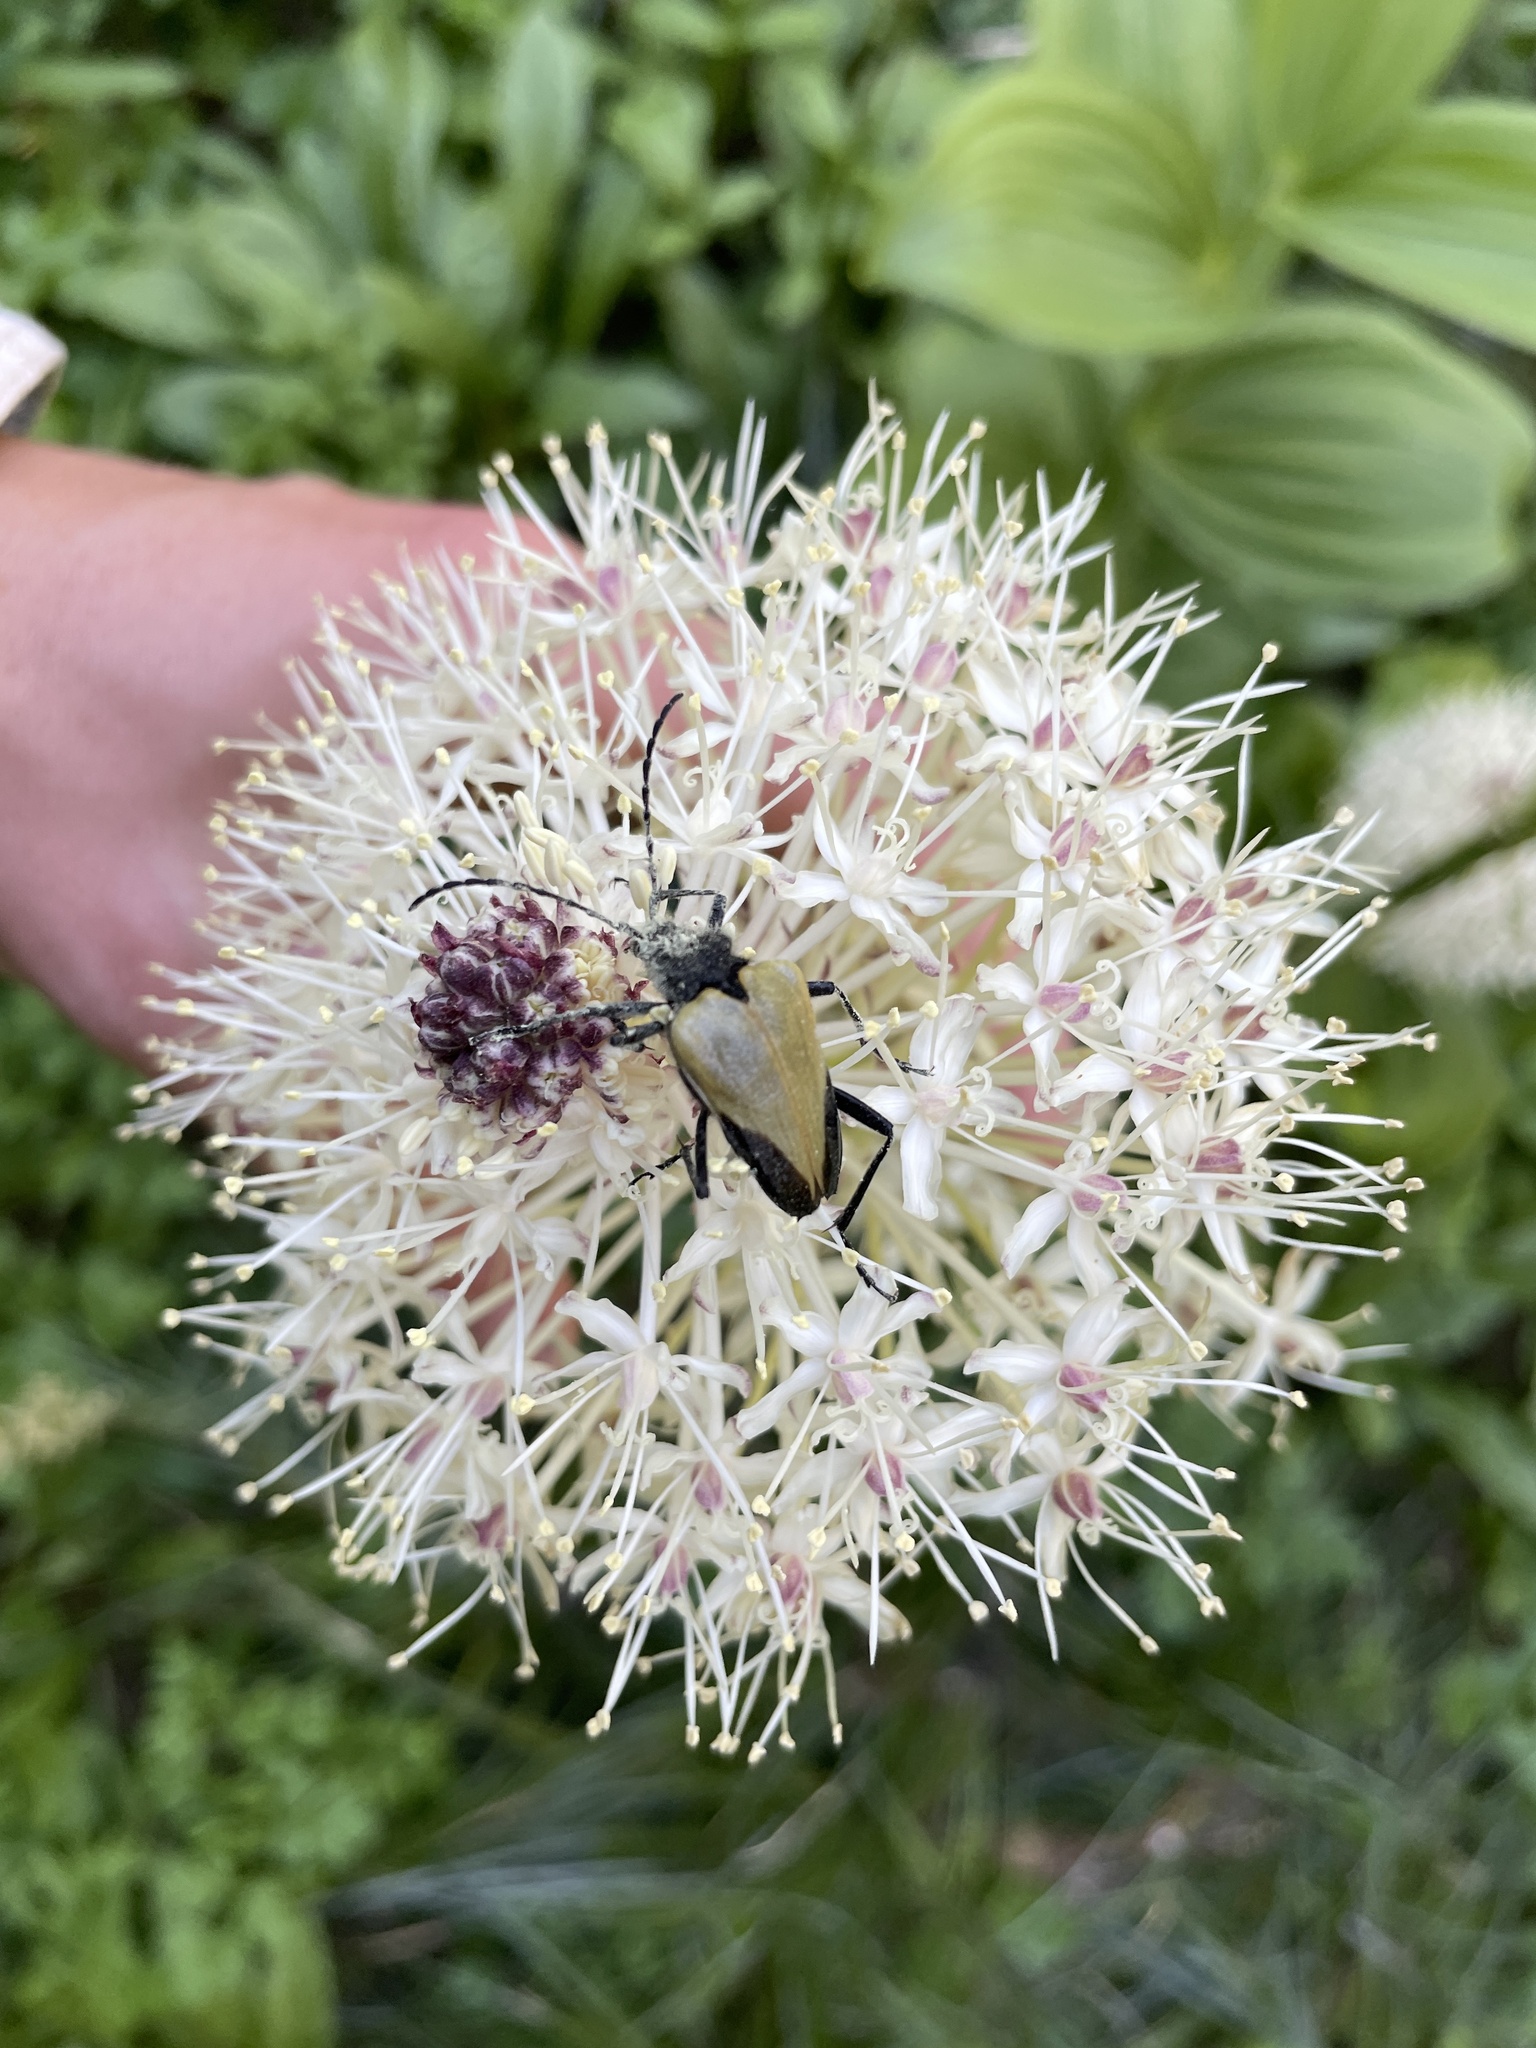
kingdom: Animalia
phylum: Arthropoda
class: Insecta
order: Coleoptera
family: Cerambycidae
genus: Pachyta
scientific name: Pachyta armata
